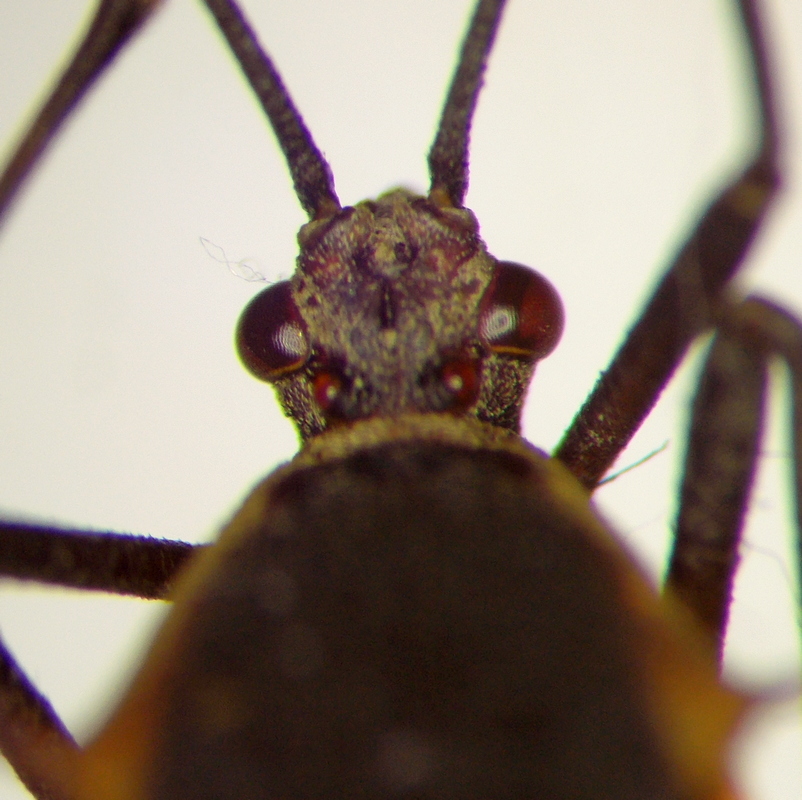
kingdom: Animalia
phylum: Arthropoda
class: Insecta
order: Hemiptera
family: Coreidae
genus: Plapigus
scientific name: Plapigus circumcinctus
